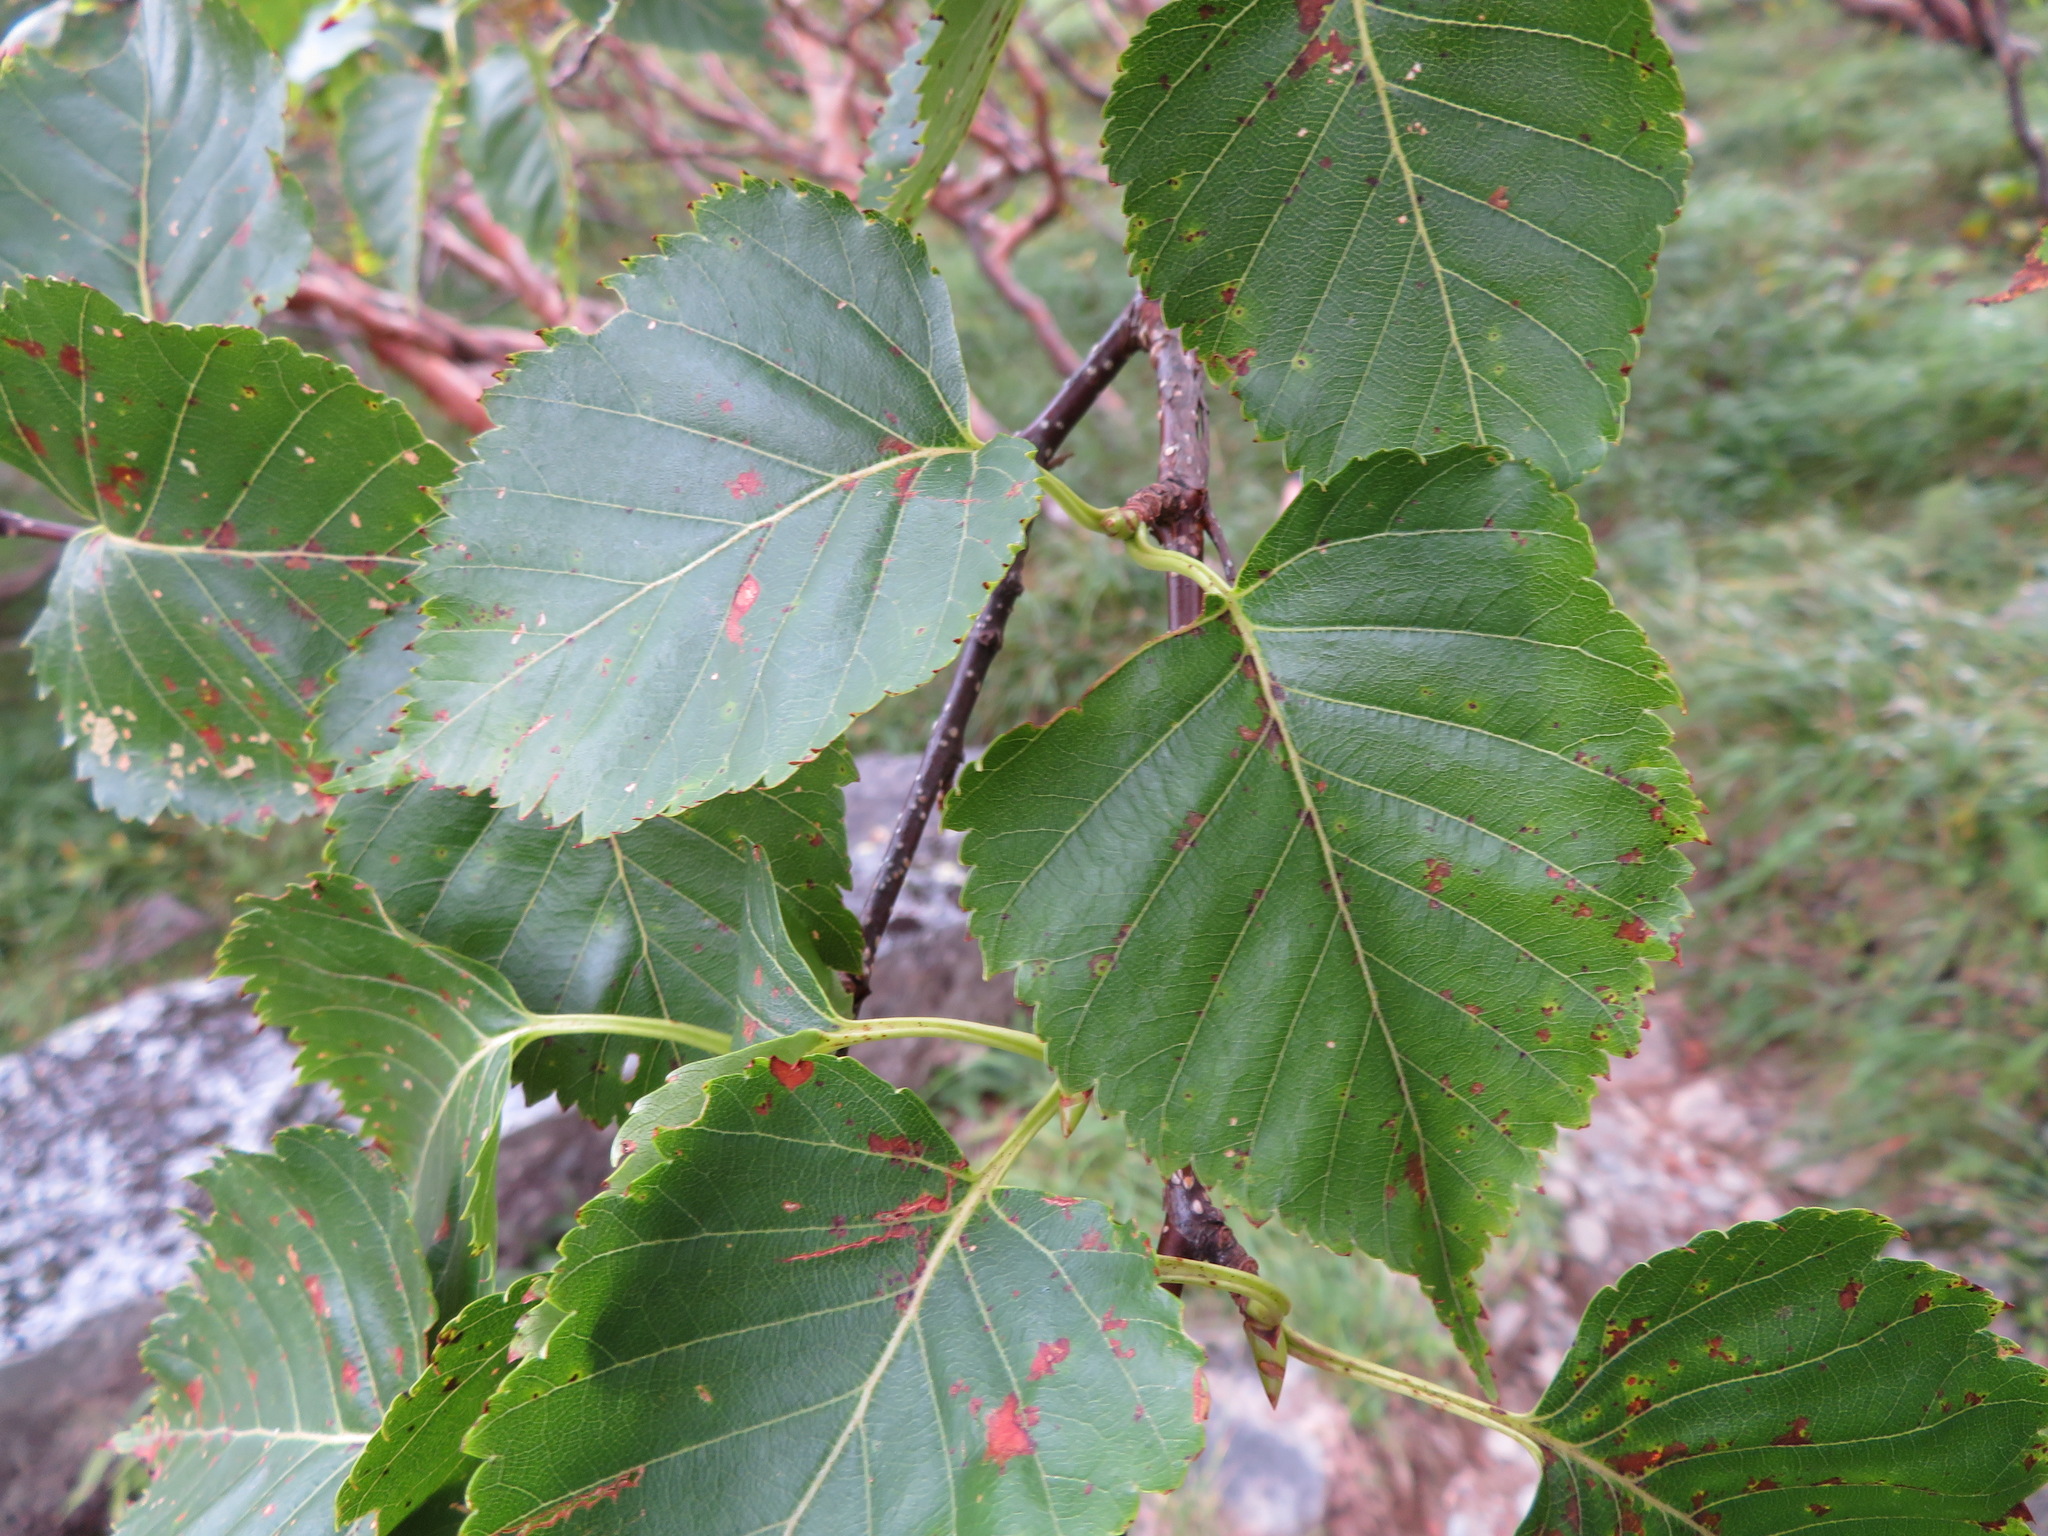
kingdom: Plantae
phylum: Tracheophyta
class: Magnoliopsida
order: Fagales
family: Betulaceae
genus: Betula
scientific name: Betula ermanii
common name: Erman's birch
